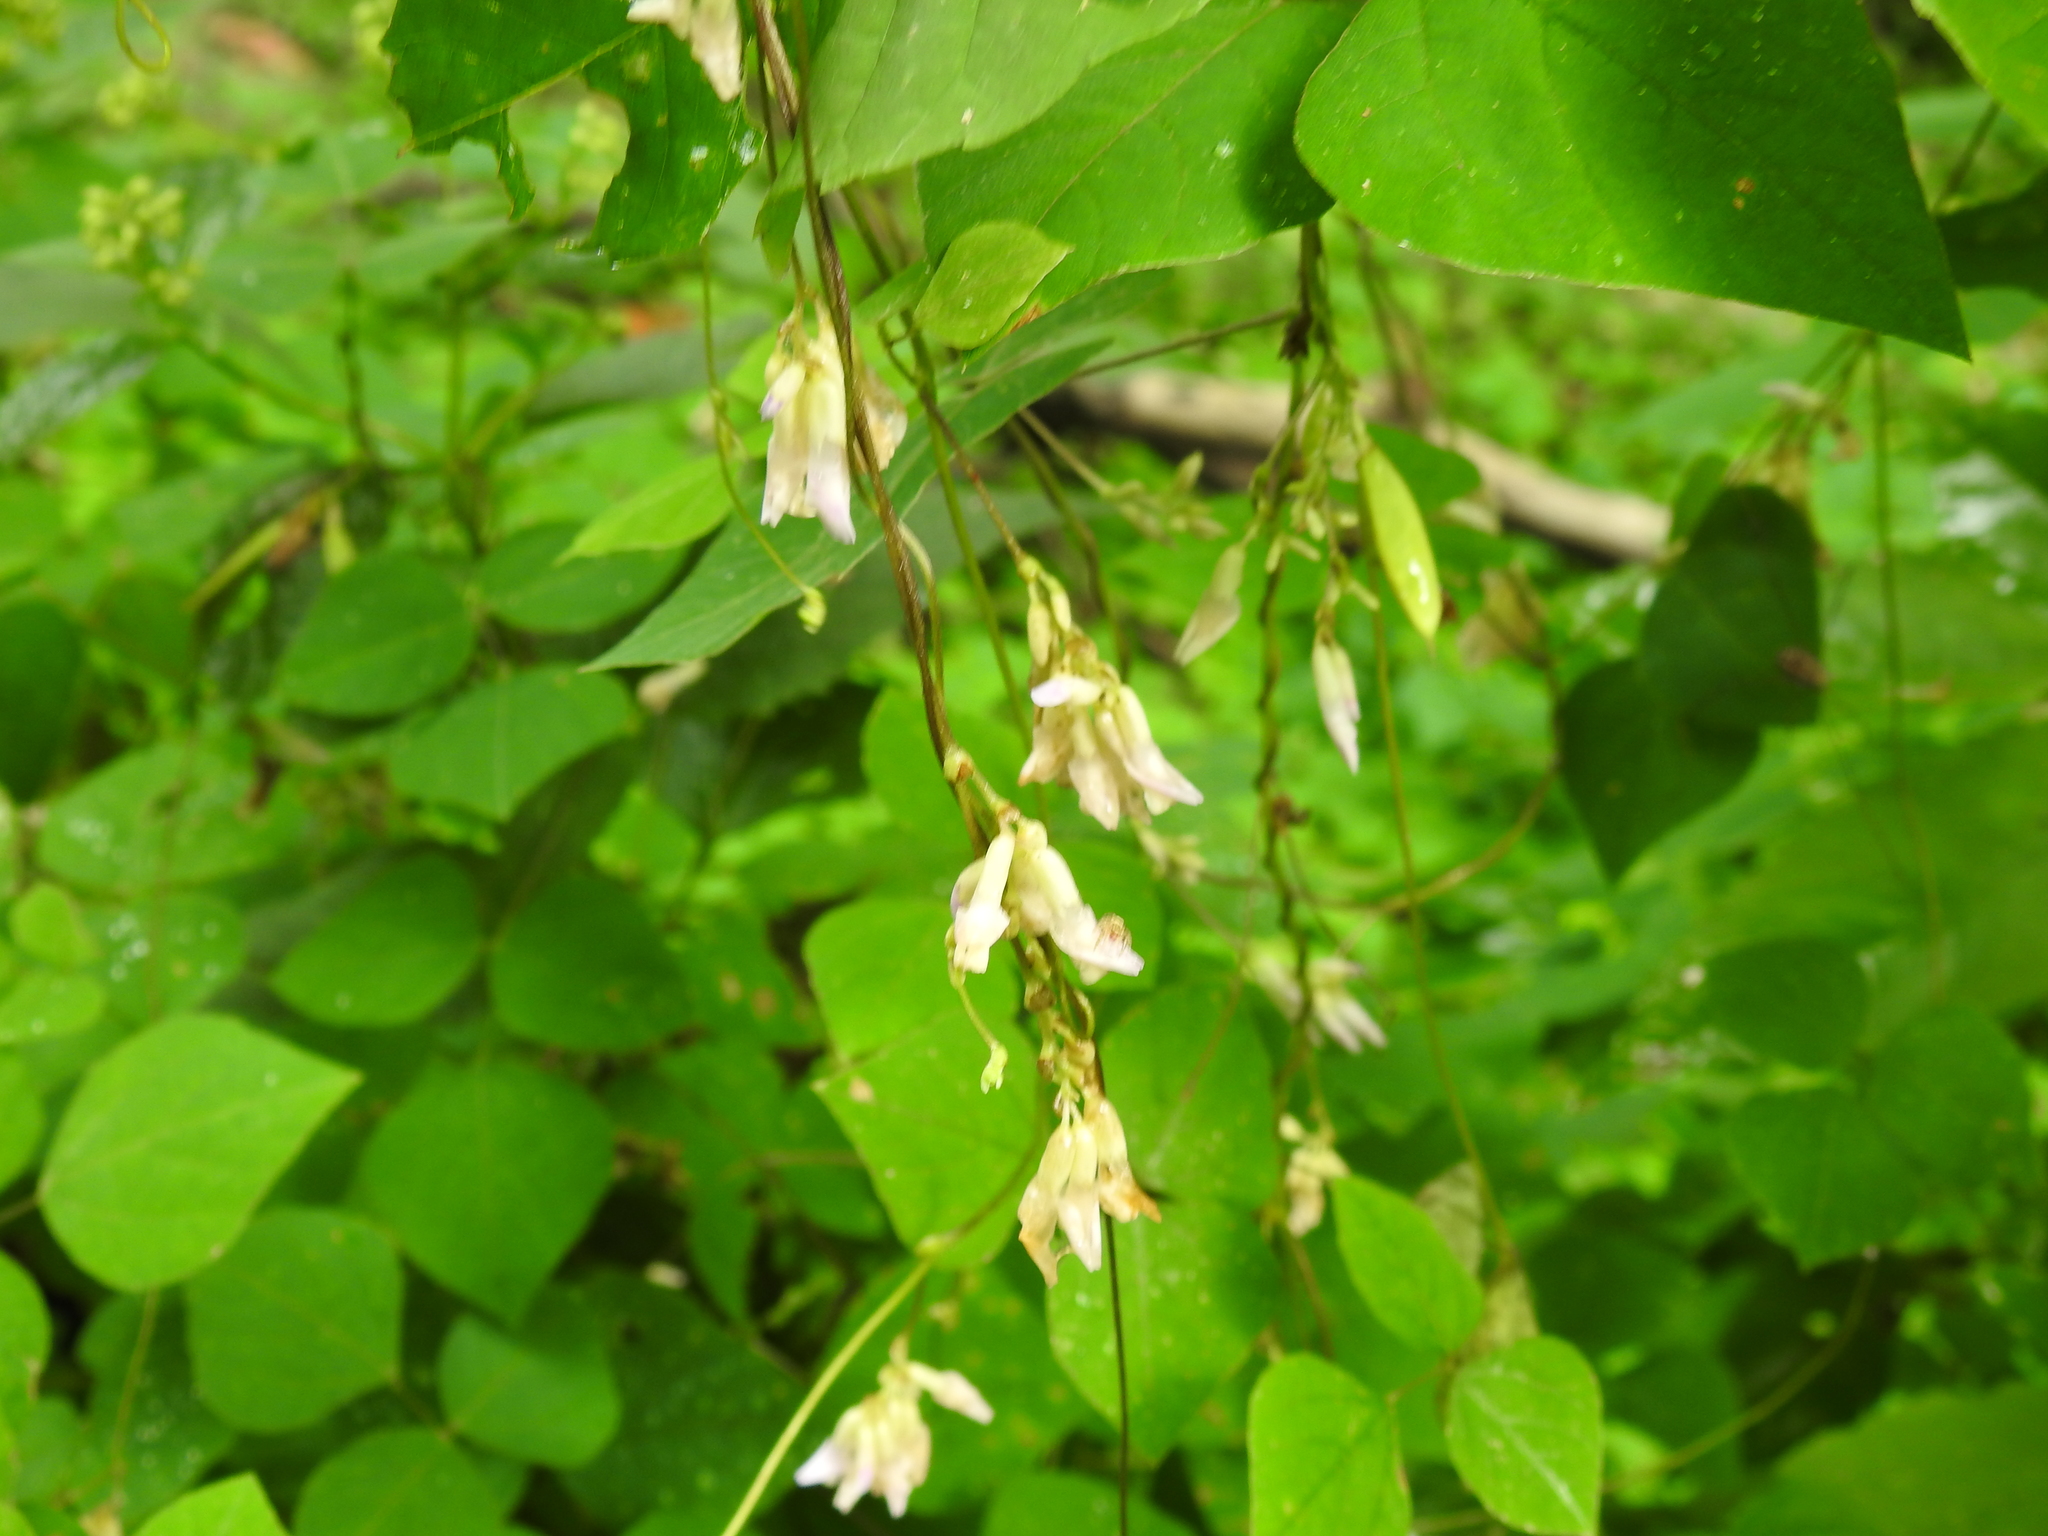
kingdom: Plantae
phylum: Tracheophyta
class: Magnoliopsida
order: Fabales
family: Fabaceae
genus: Amphicarpaea
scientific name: Amphicarpaea bracteata
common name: American hog peanut
